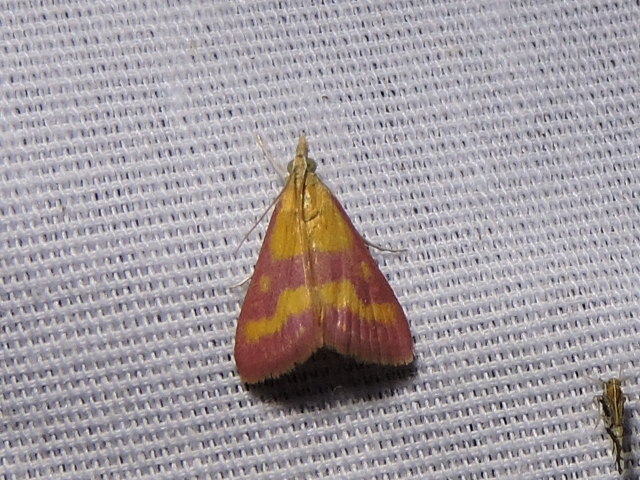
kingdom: Animalia
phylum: Arthropoda
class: Insecta
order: Lepidoptera
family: Crambidae
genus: Pyrausta
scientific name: Pyrausta laticlavia
